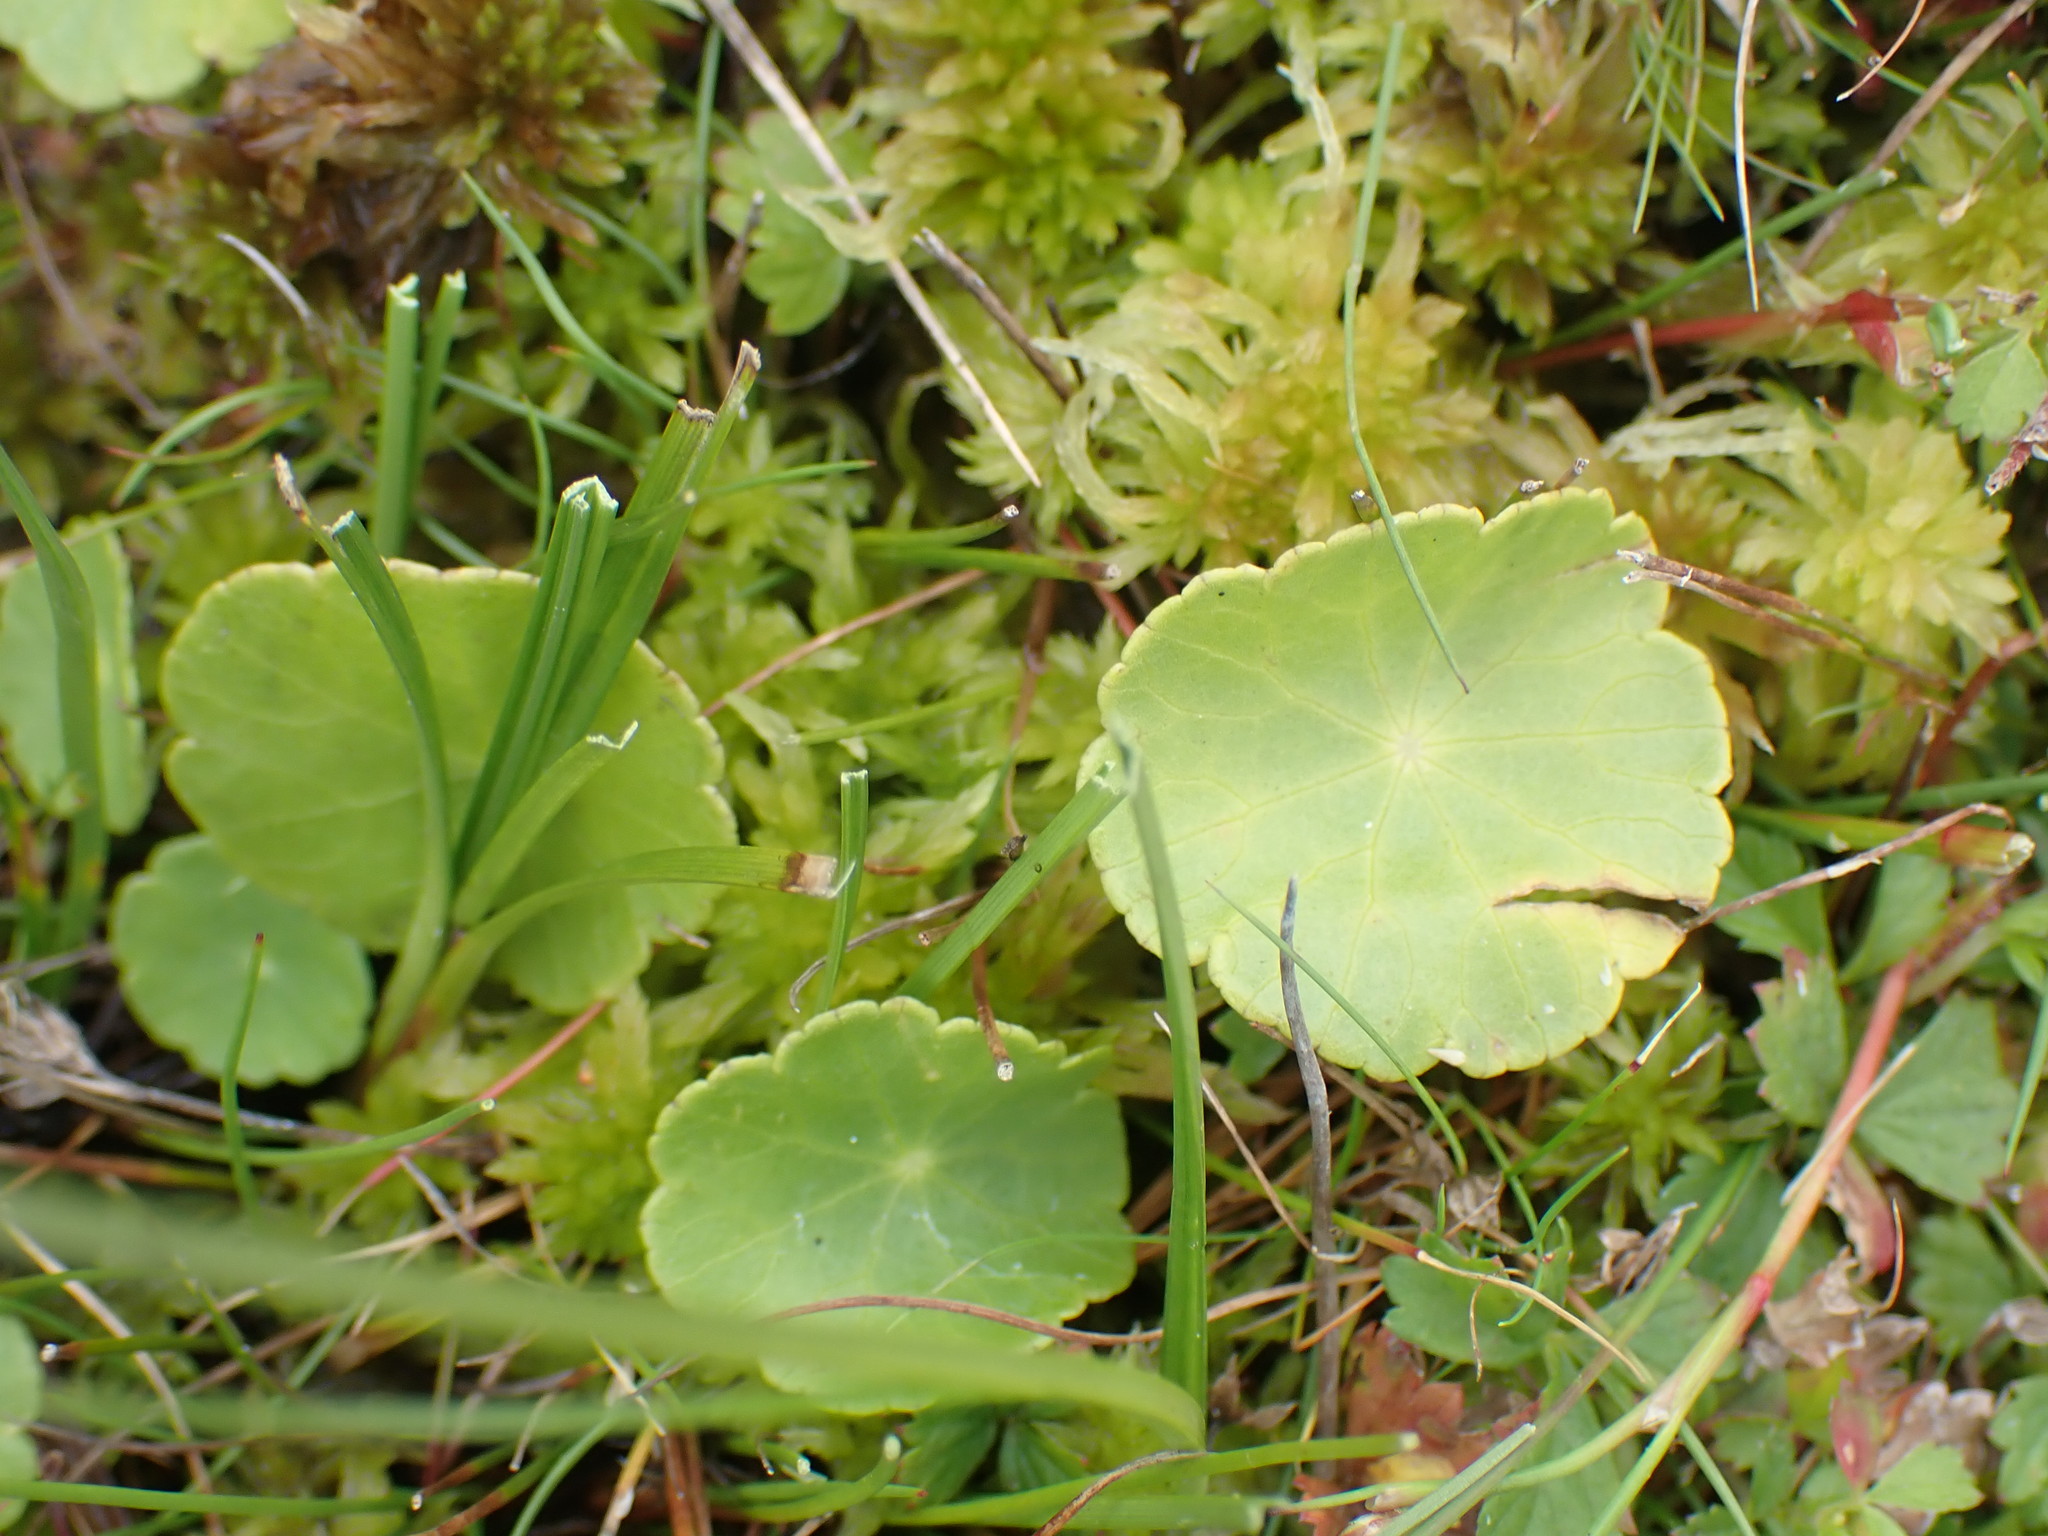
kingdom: Plantae
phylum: Tracheophyta
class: Magnoliopsida
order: Apiales
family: Araliaceae
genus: Hydrocotyle
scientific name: Hydrocotyle vulgaris
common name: Marsh pennywort
